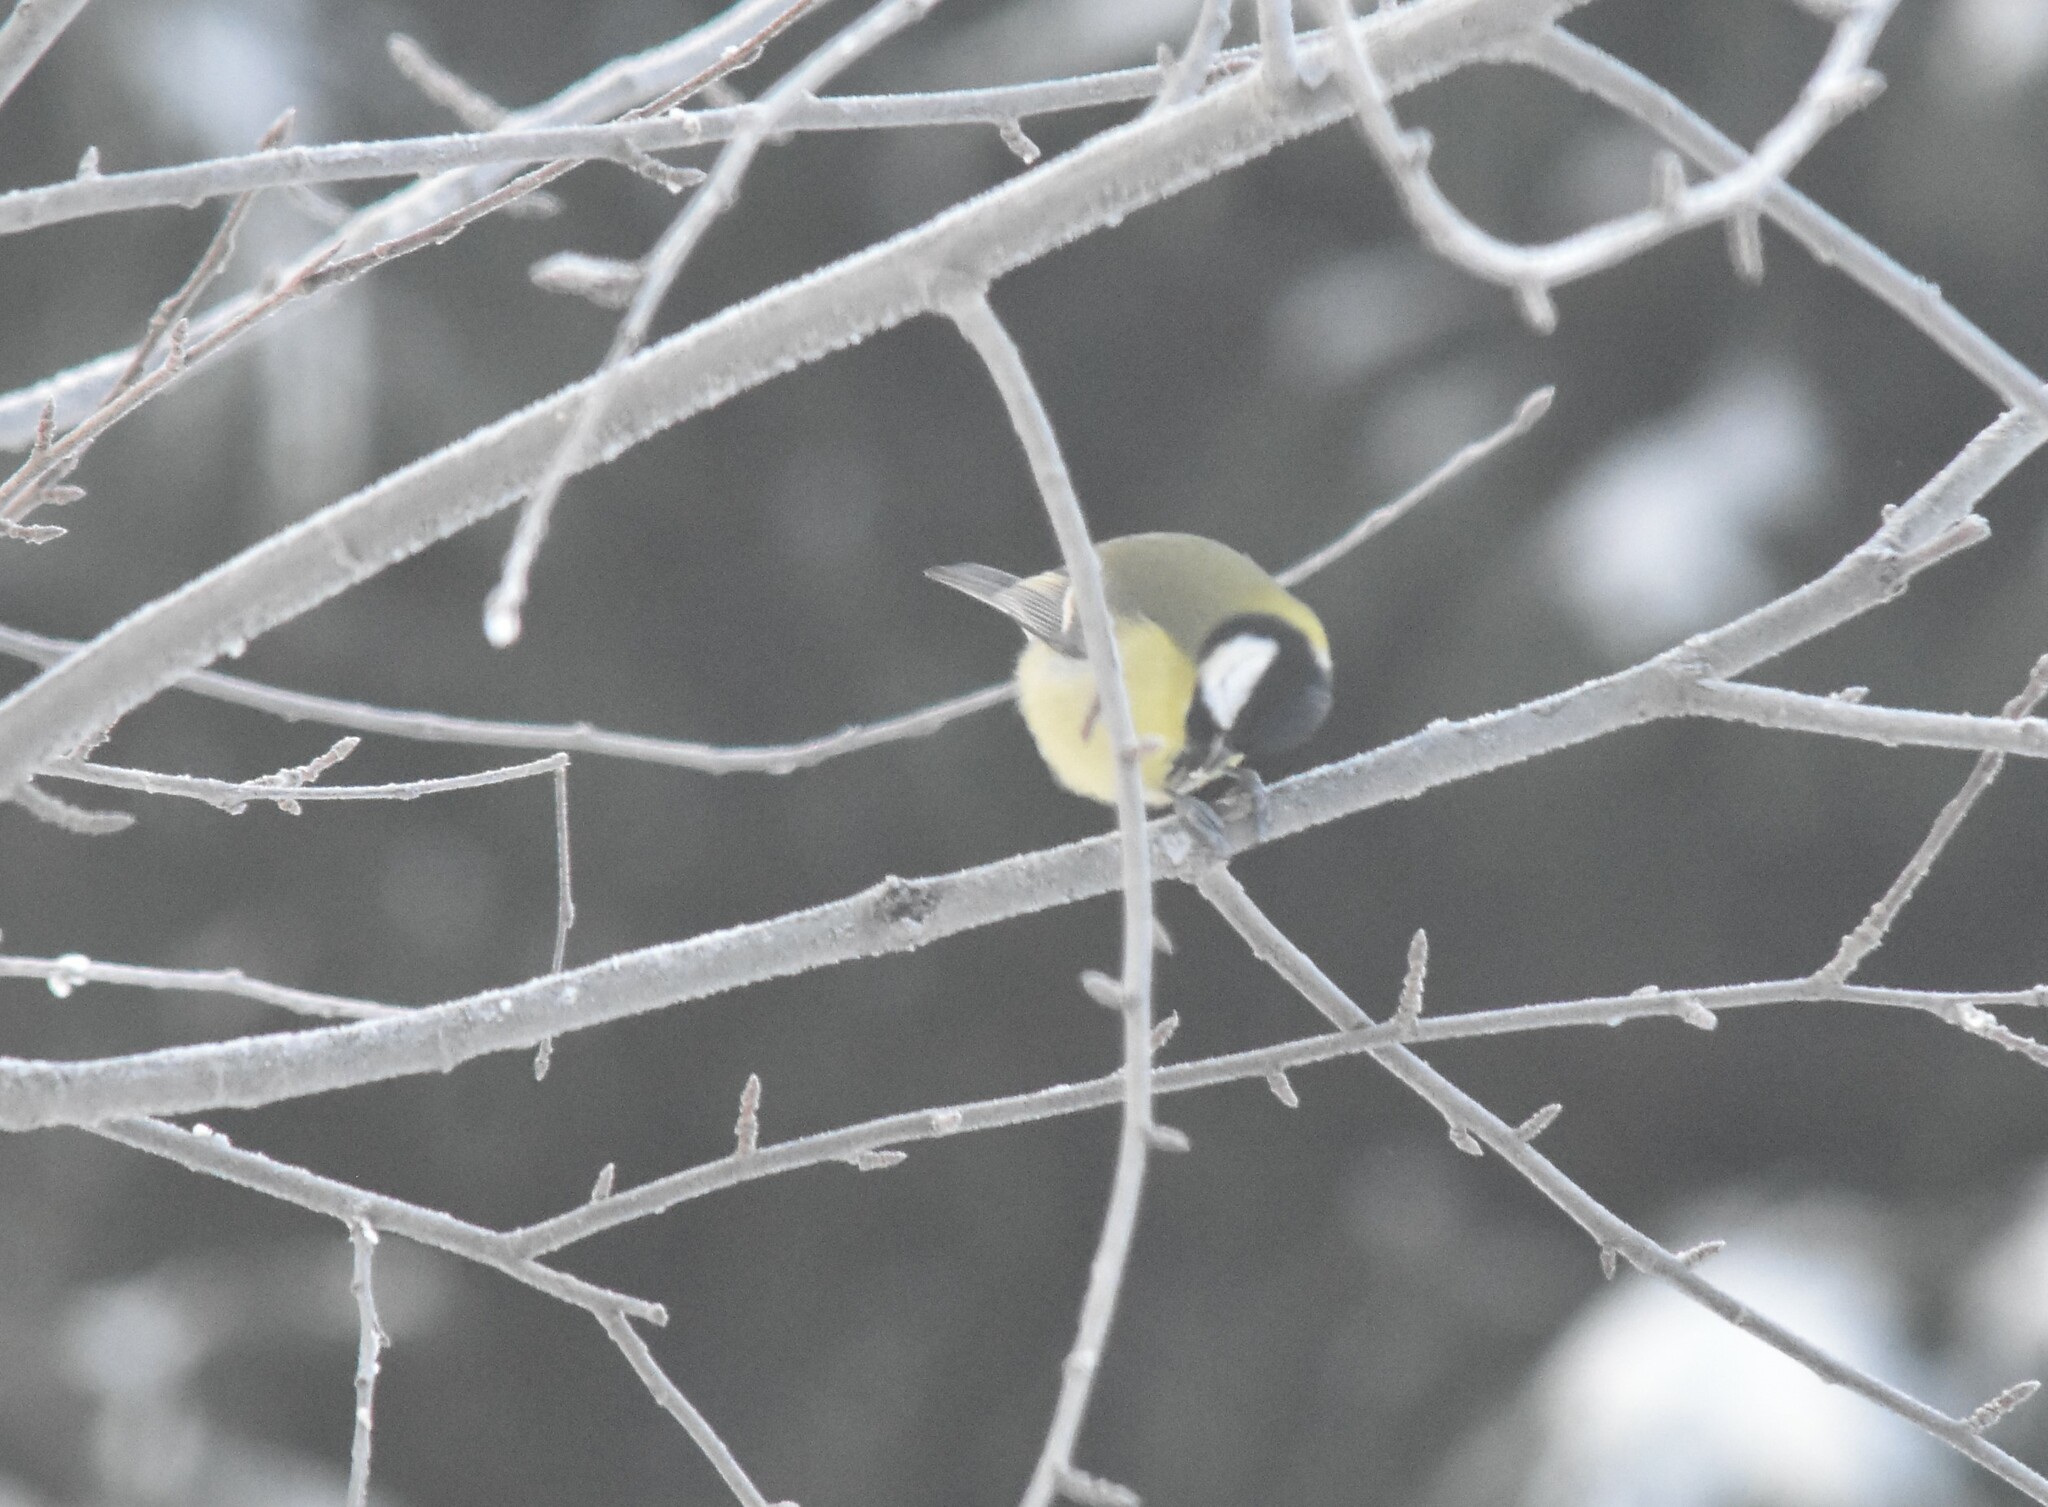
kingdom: Animalia
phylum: Chordata
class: Aves
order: Passeriformes
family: Paridae
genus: Parus
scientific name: Parus major
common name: Great tit
